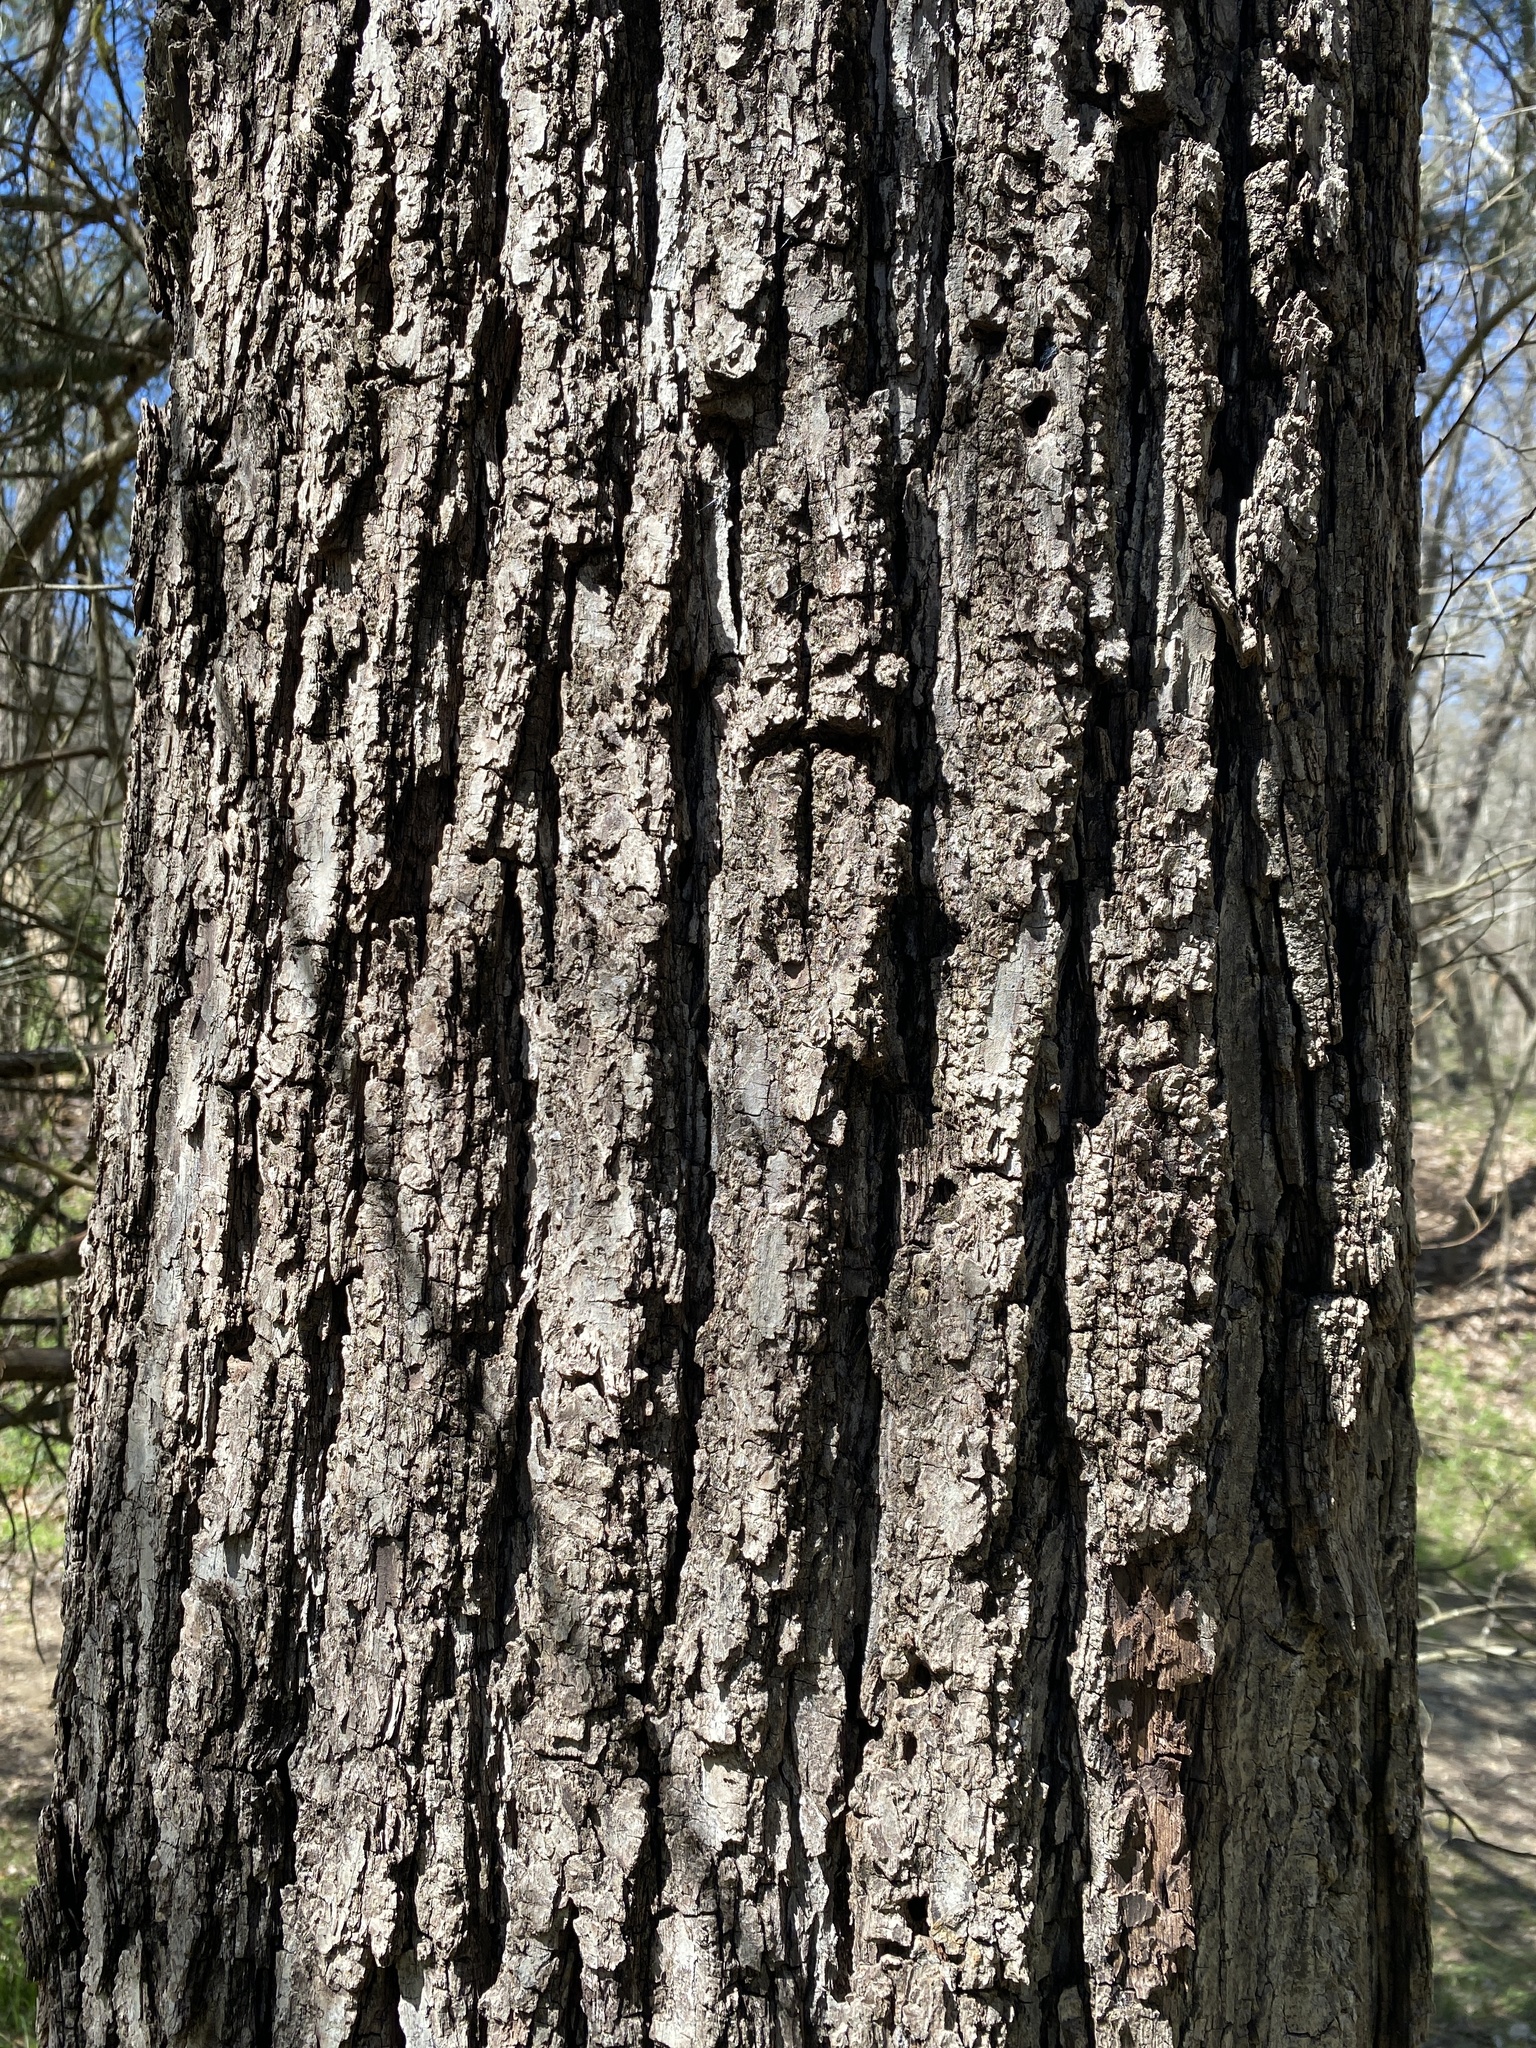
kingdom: Plantae
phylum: Tracheophyta
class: Magnoliopsida
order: Fagales
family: Juglandaceae
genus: Juglans
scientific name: Juglans nigra
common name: Black walnut
